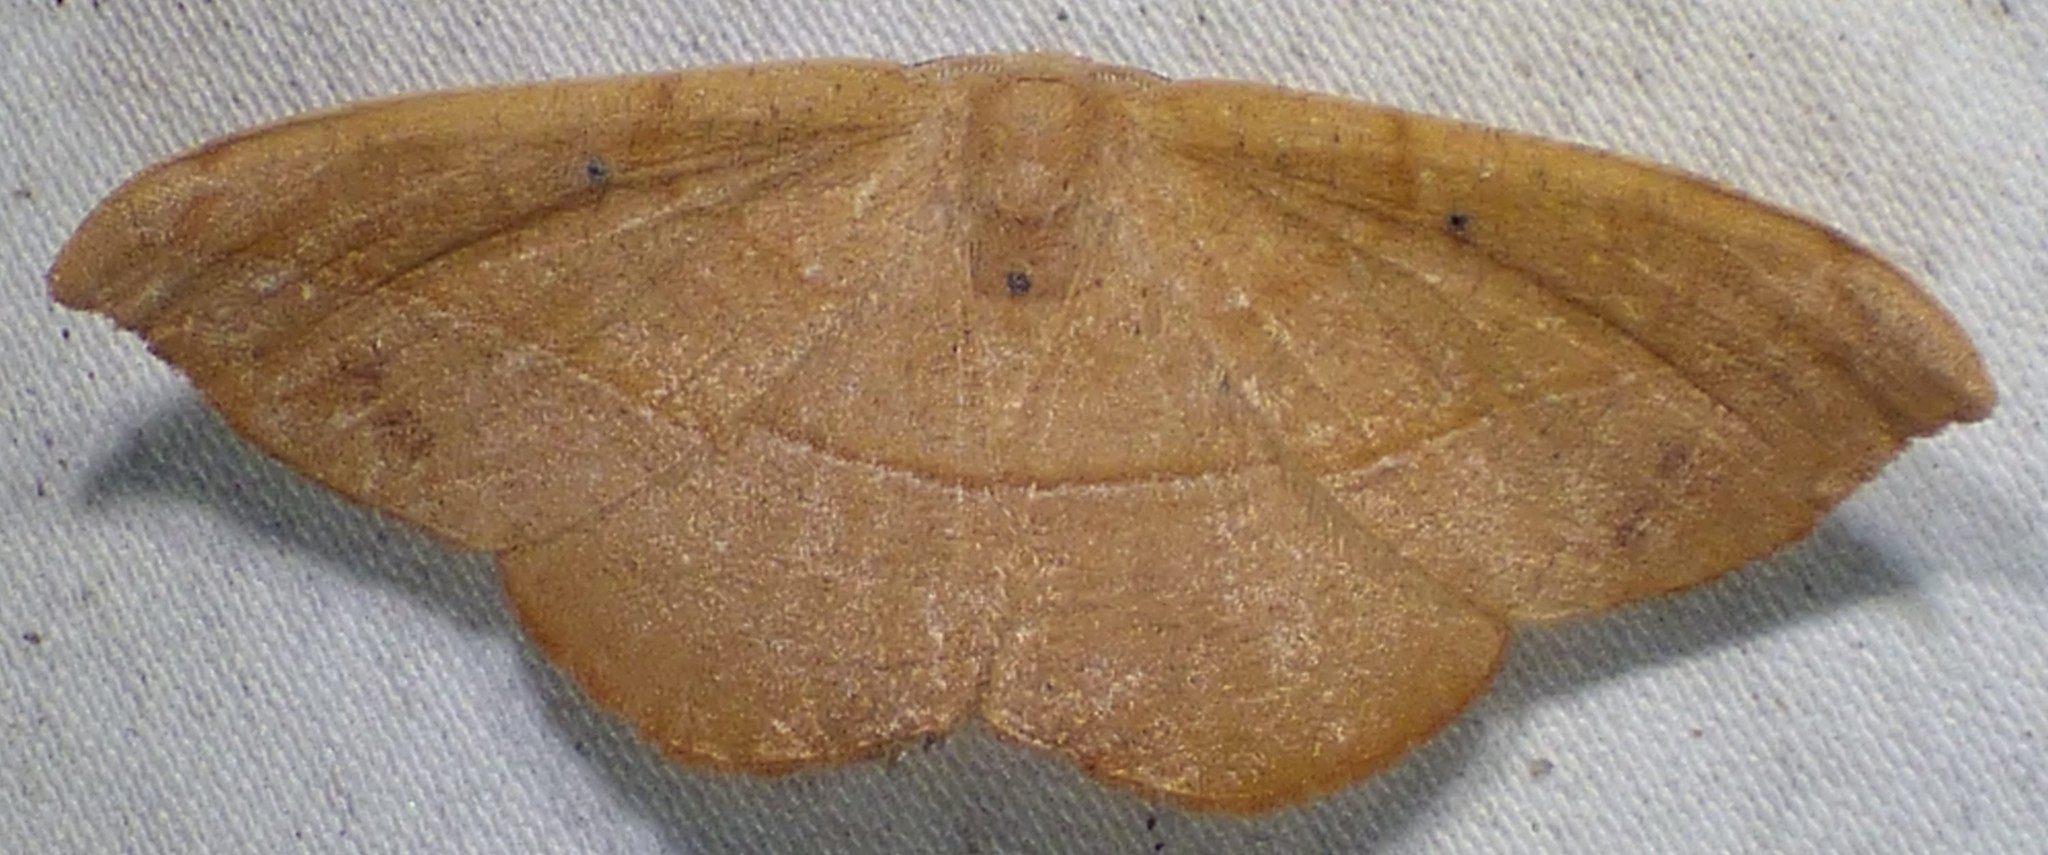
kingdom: Animalia
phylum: Arthropoda
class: Insecta
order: Lepidoptera
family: Geometridae
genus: Patalene
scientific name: Patalene olyzonaria
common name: Juniper geometer moth
